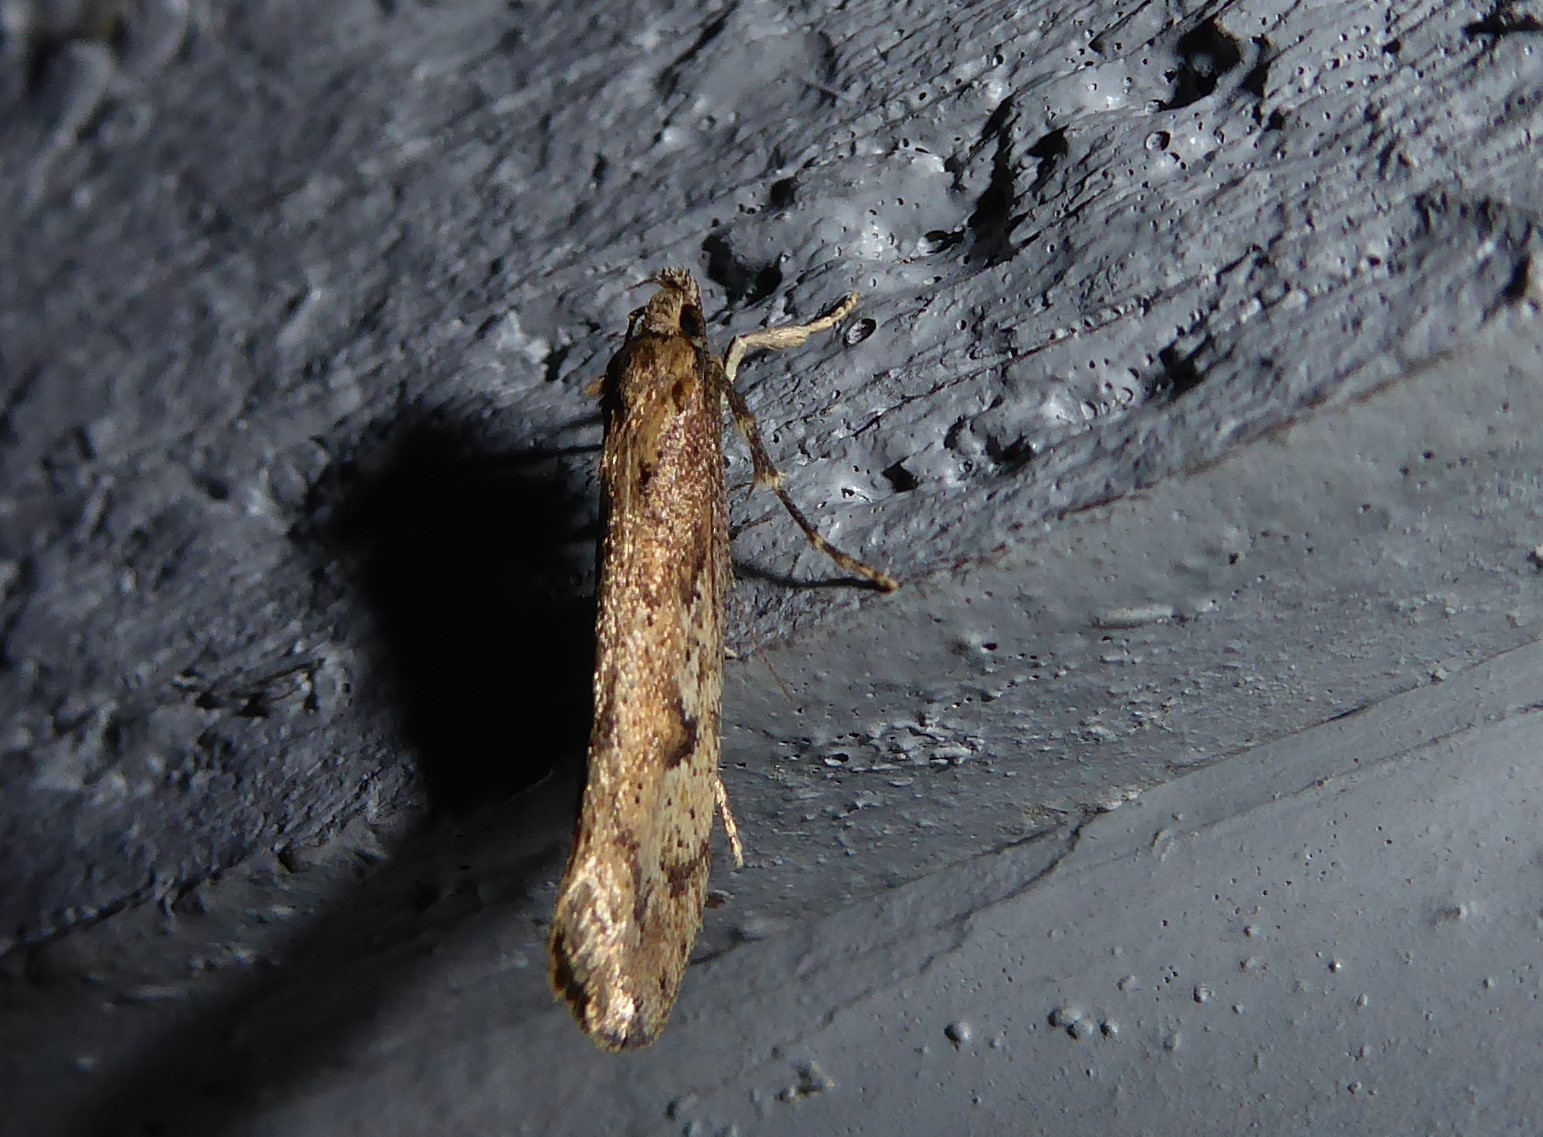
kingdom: Animalia
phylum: Arthropoda
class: Insecta
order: Lepidoptera
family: Oecophoridae
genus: Atomotricha
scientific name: Atomotricha chloronota
